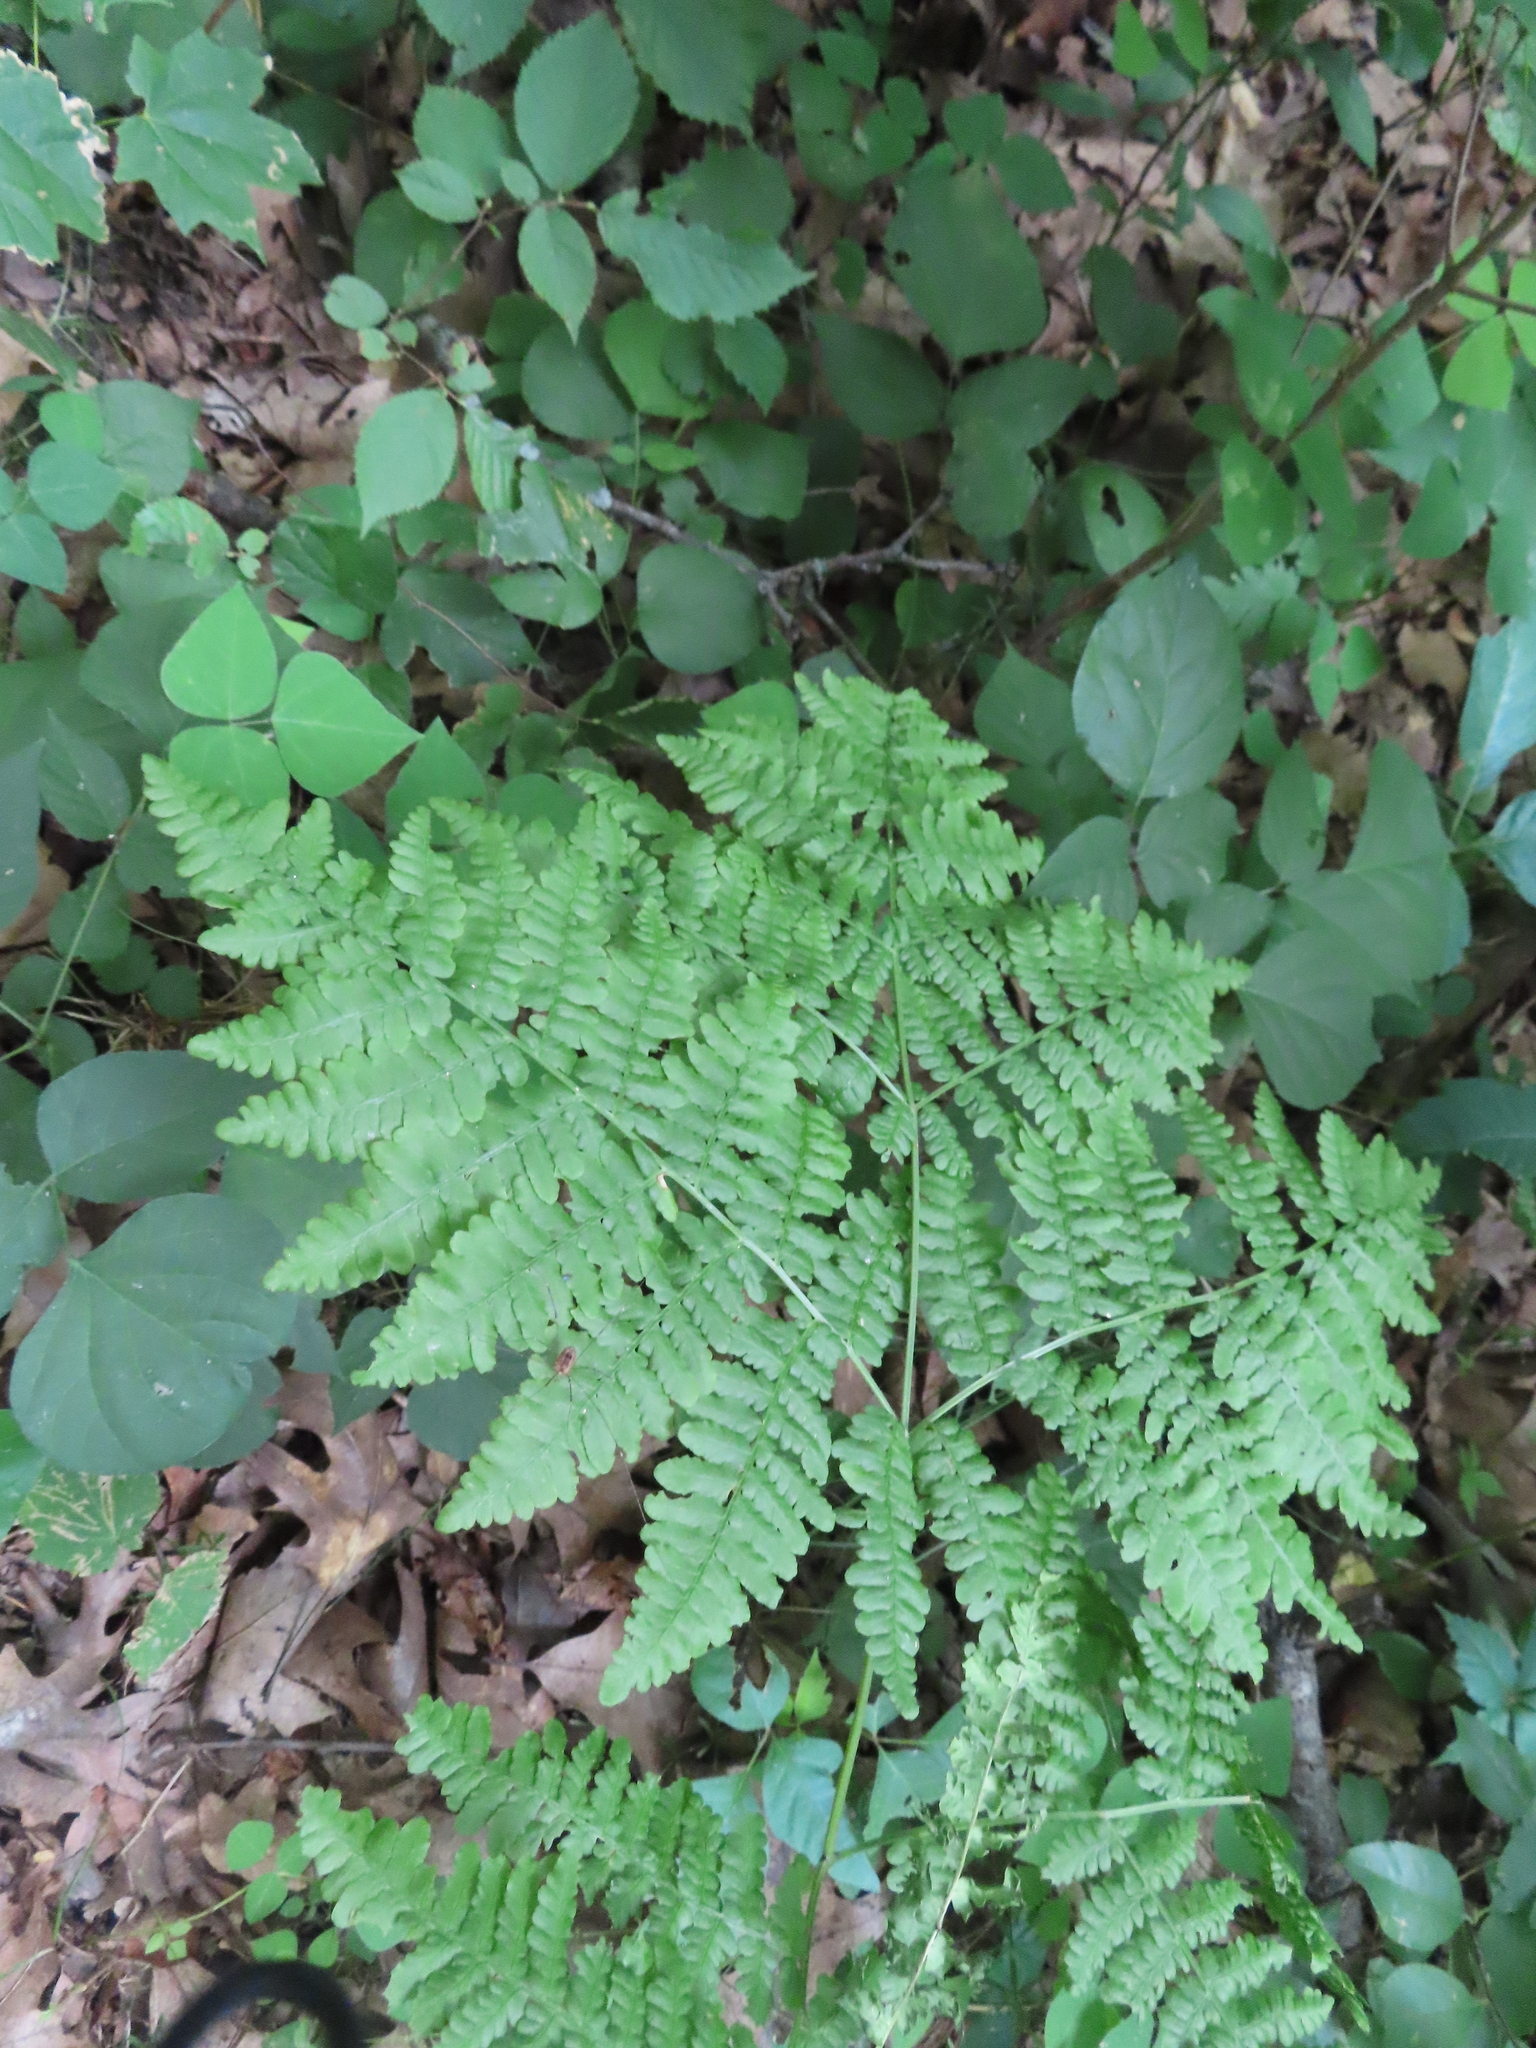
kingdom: Plantae
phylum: Tracheophyta
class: Polypodiopsida
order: Polypodiales
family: Dennstaedtiaceae
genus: Pteridium
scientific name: Pteridium aquilinum
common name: Bracken
